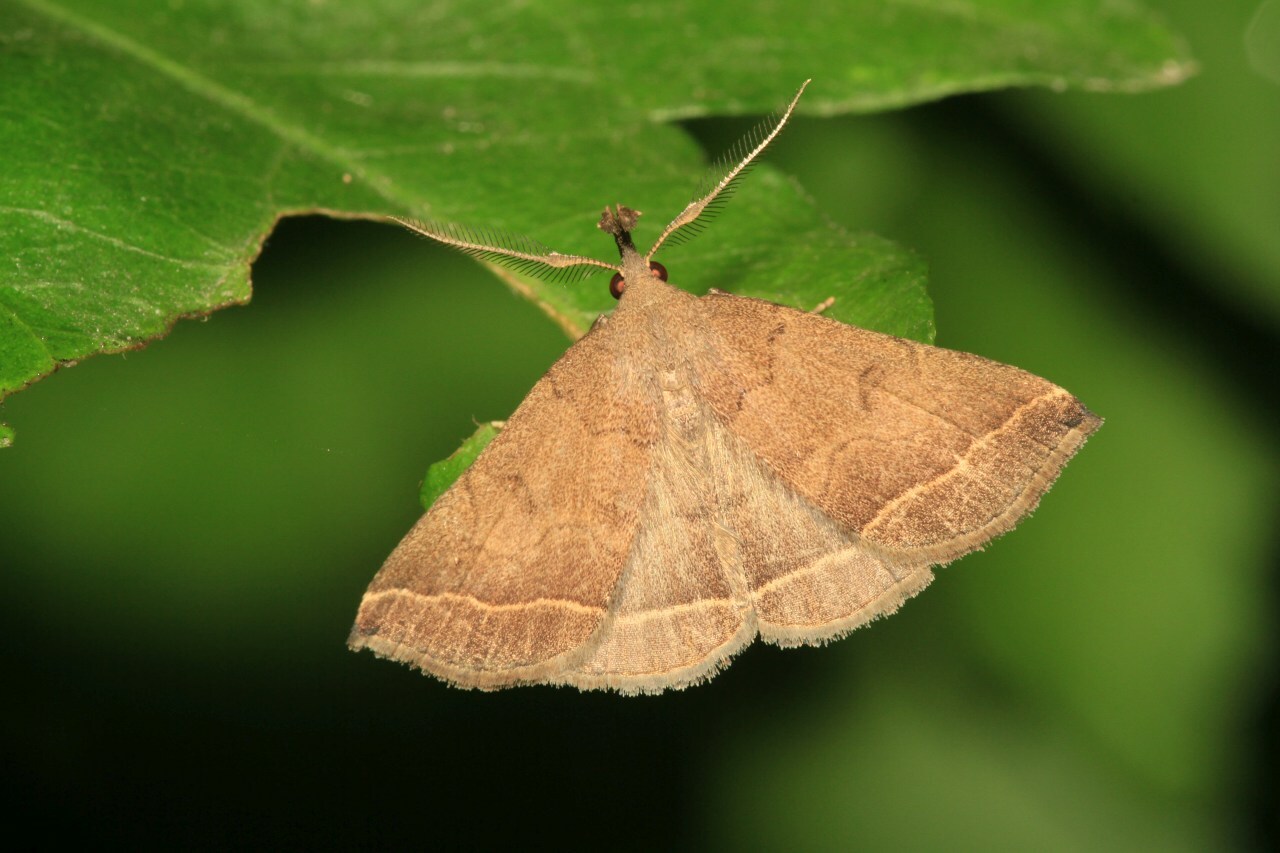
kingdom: Animalia
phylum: Arthropoda
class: Insecta
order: Lepidoptera
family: Erebidae
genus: Pechipogo
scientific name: Pechipogo plumigeralis
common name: Plumed fan-foot
